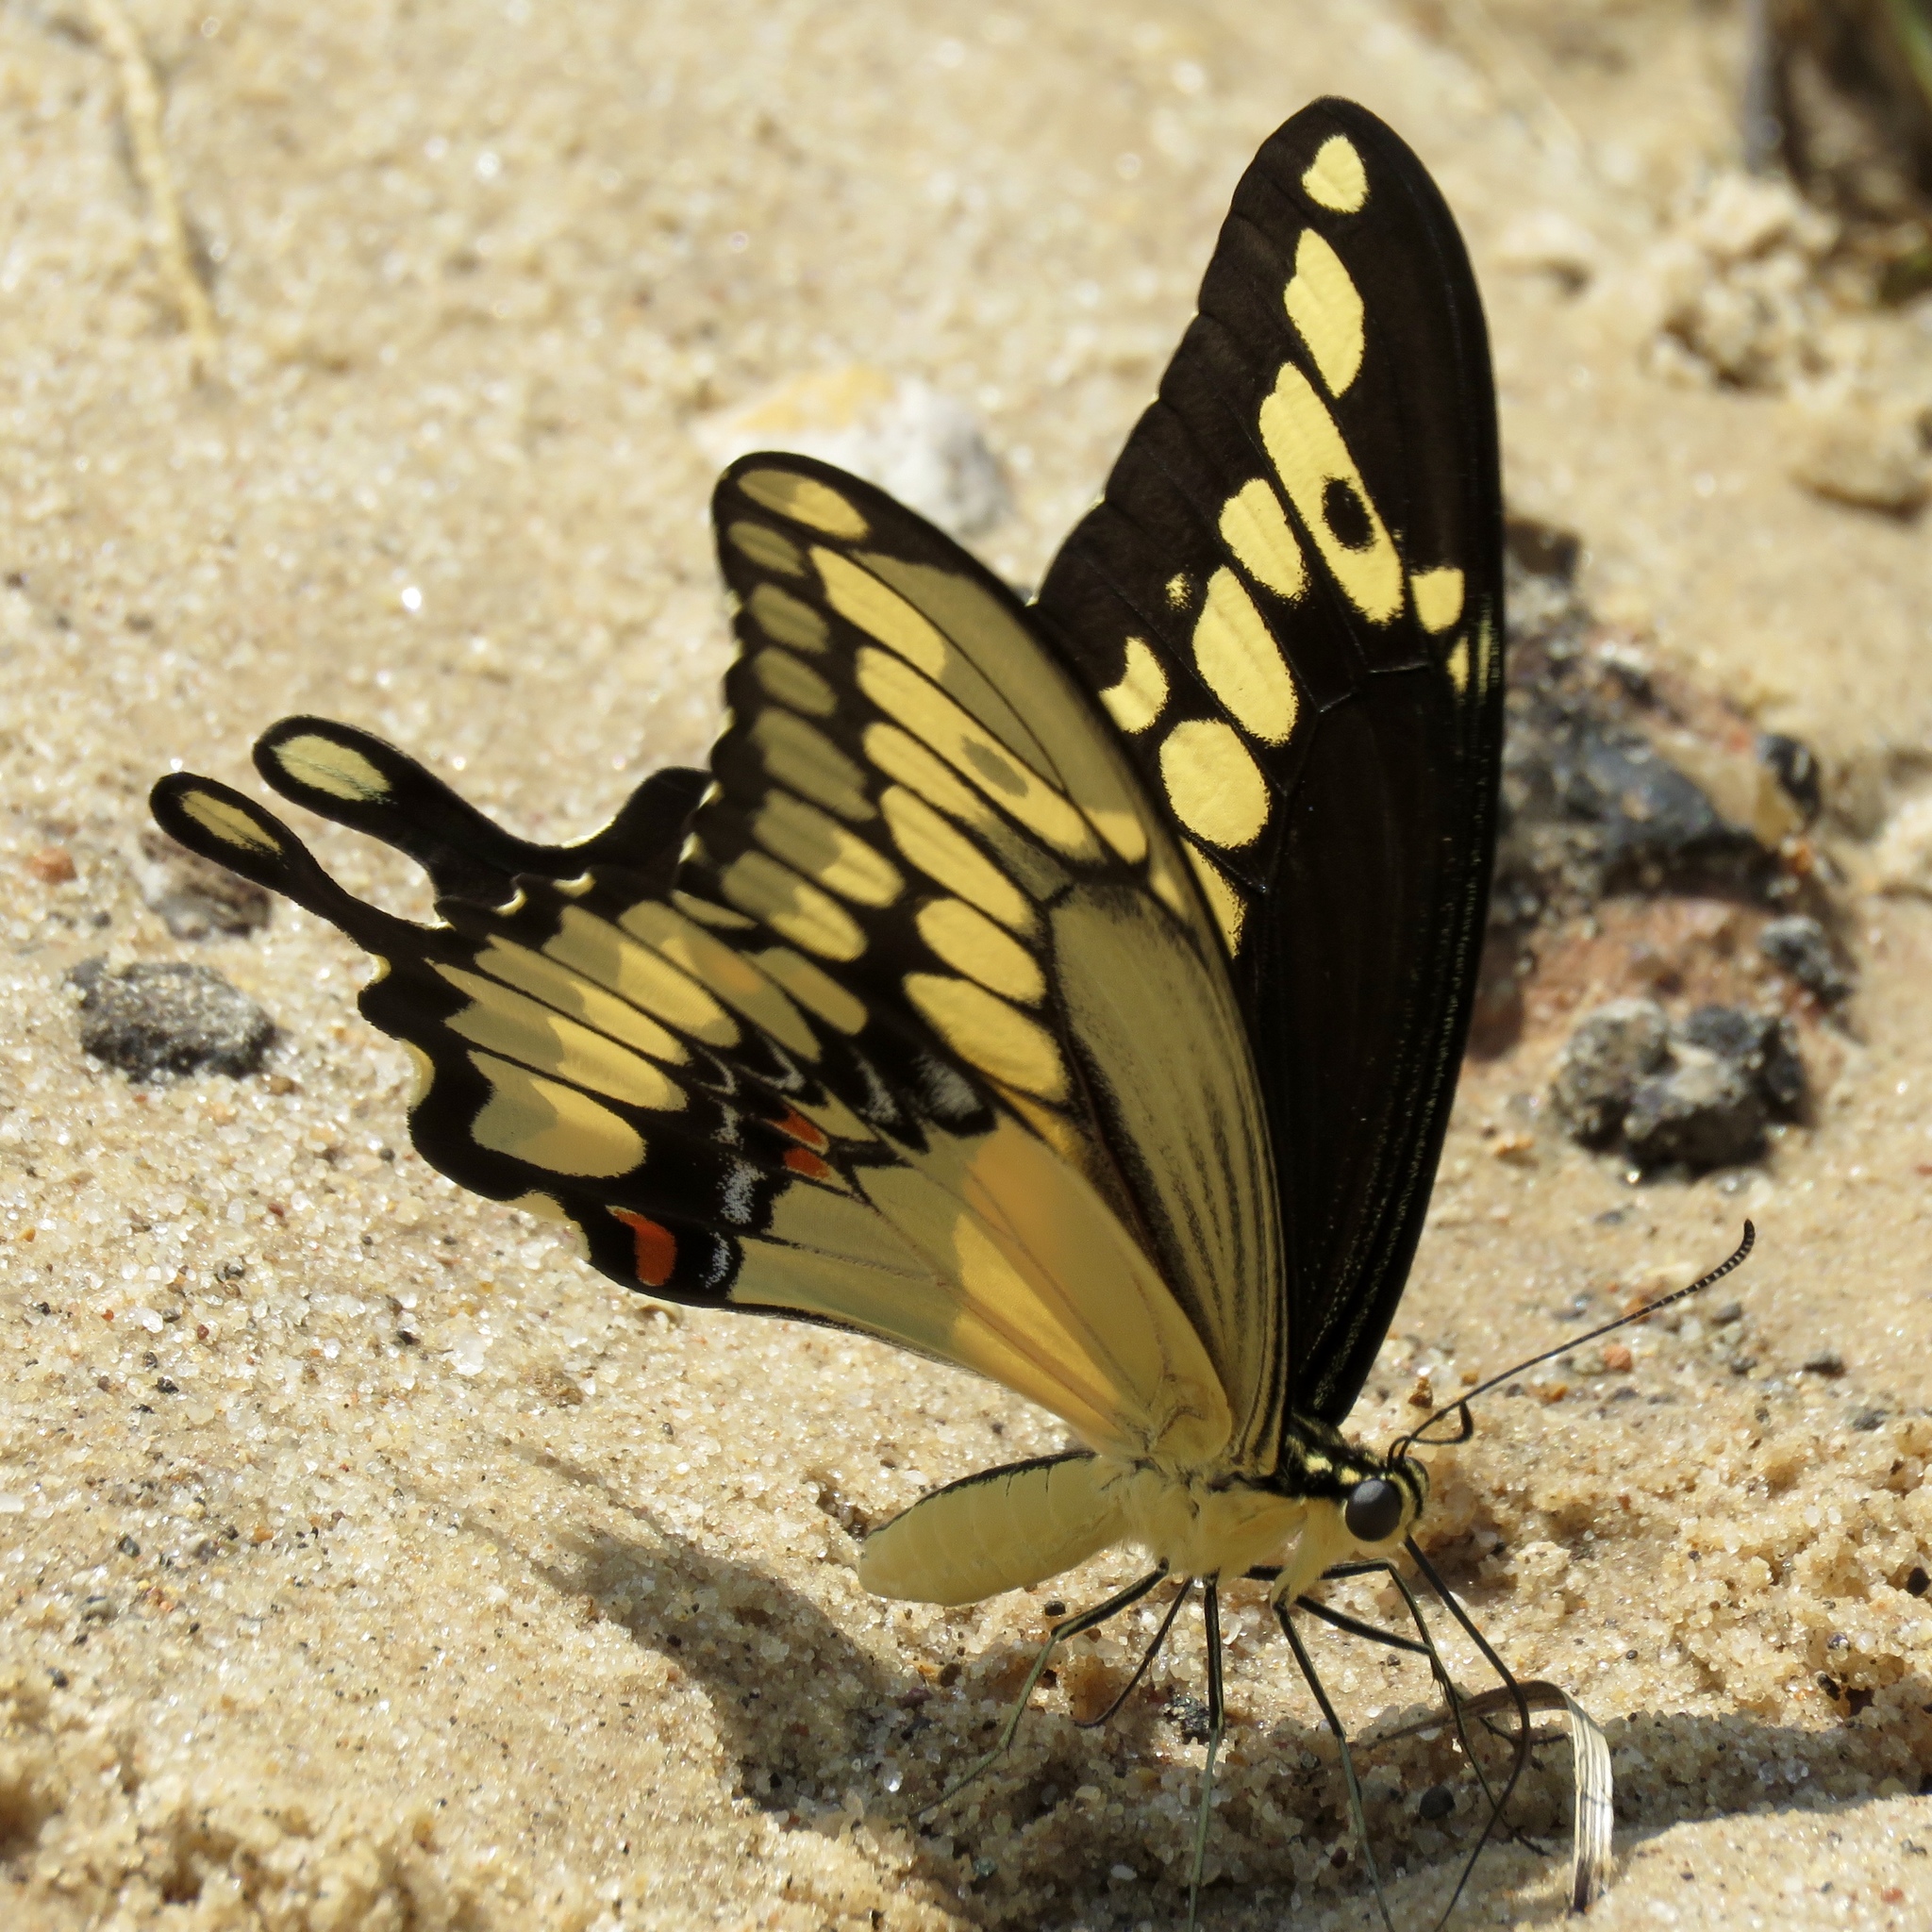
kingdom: Animalia
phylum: Arthropoda
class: Insecta
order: Lepidoptera
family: Papilionidae
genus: Papilio
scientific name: Papilio cresphontes
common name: Giant swallowtail
